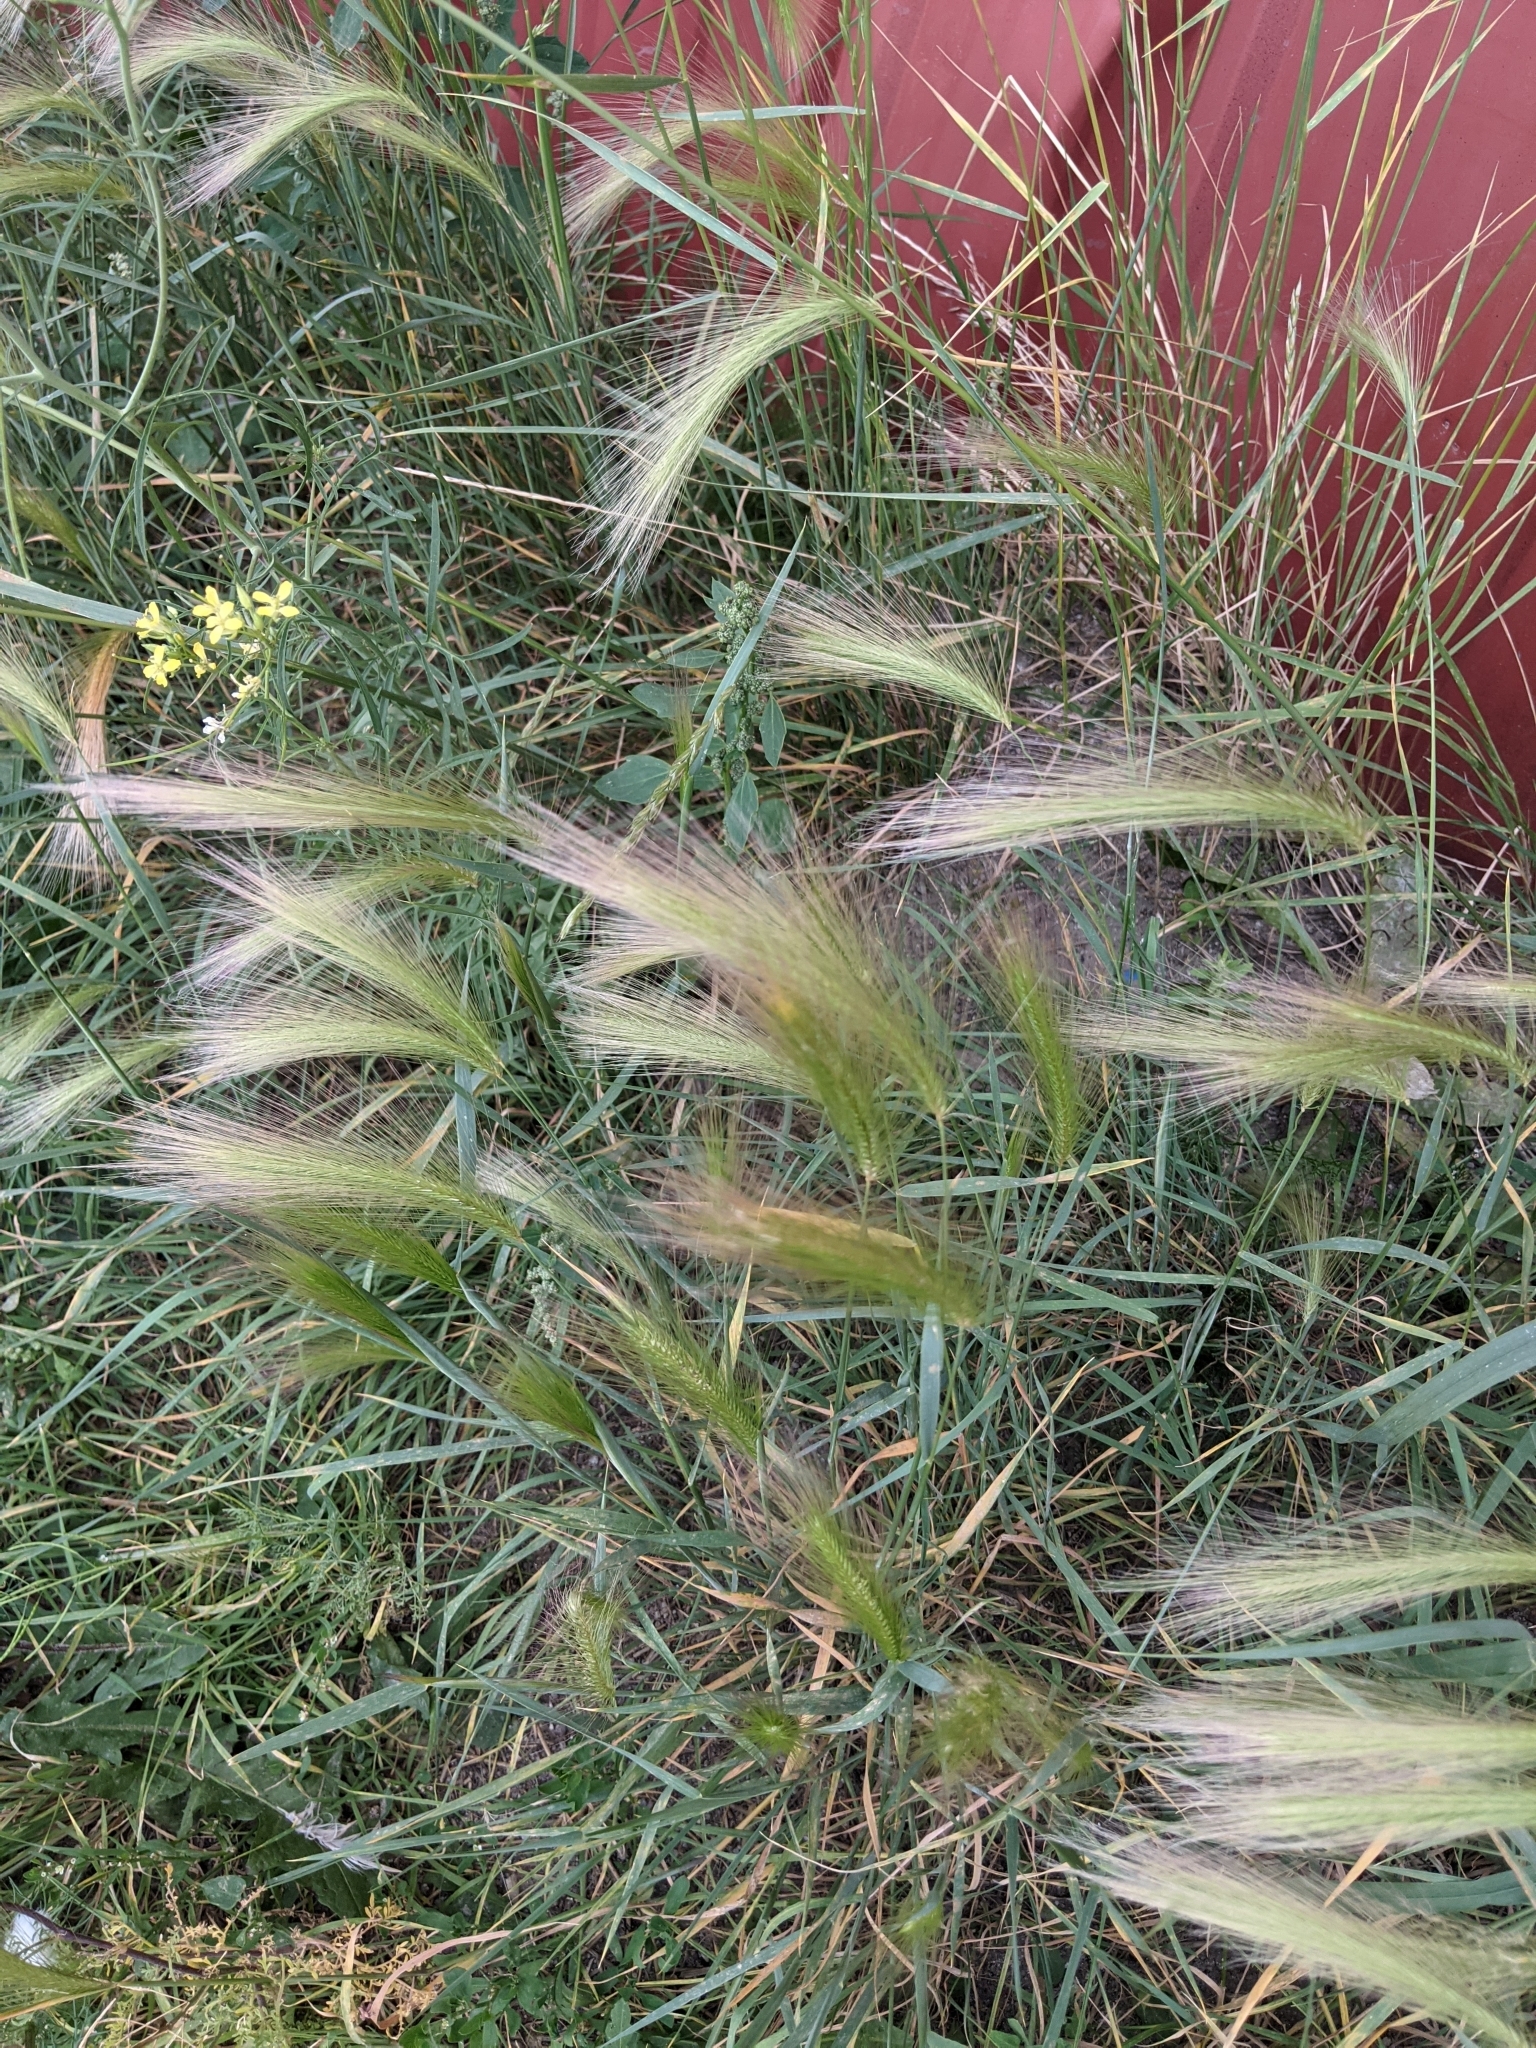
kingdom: Plantae
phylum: Tracheophyta
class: Liliopsida
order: Poales
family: Poaceae
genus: Hordeum
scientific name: Hordeum jubatum
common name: Foxtail barley
